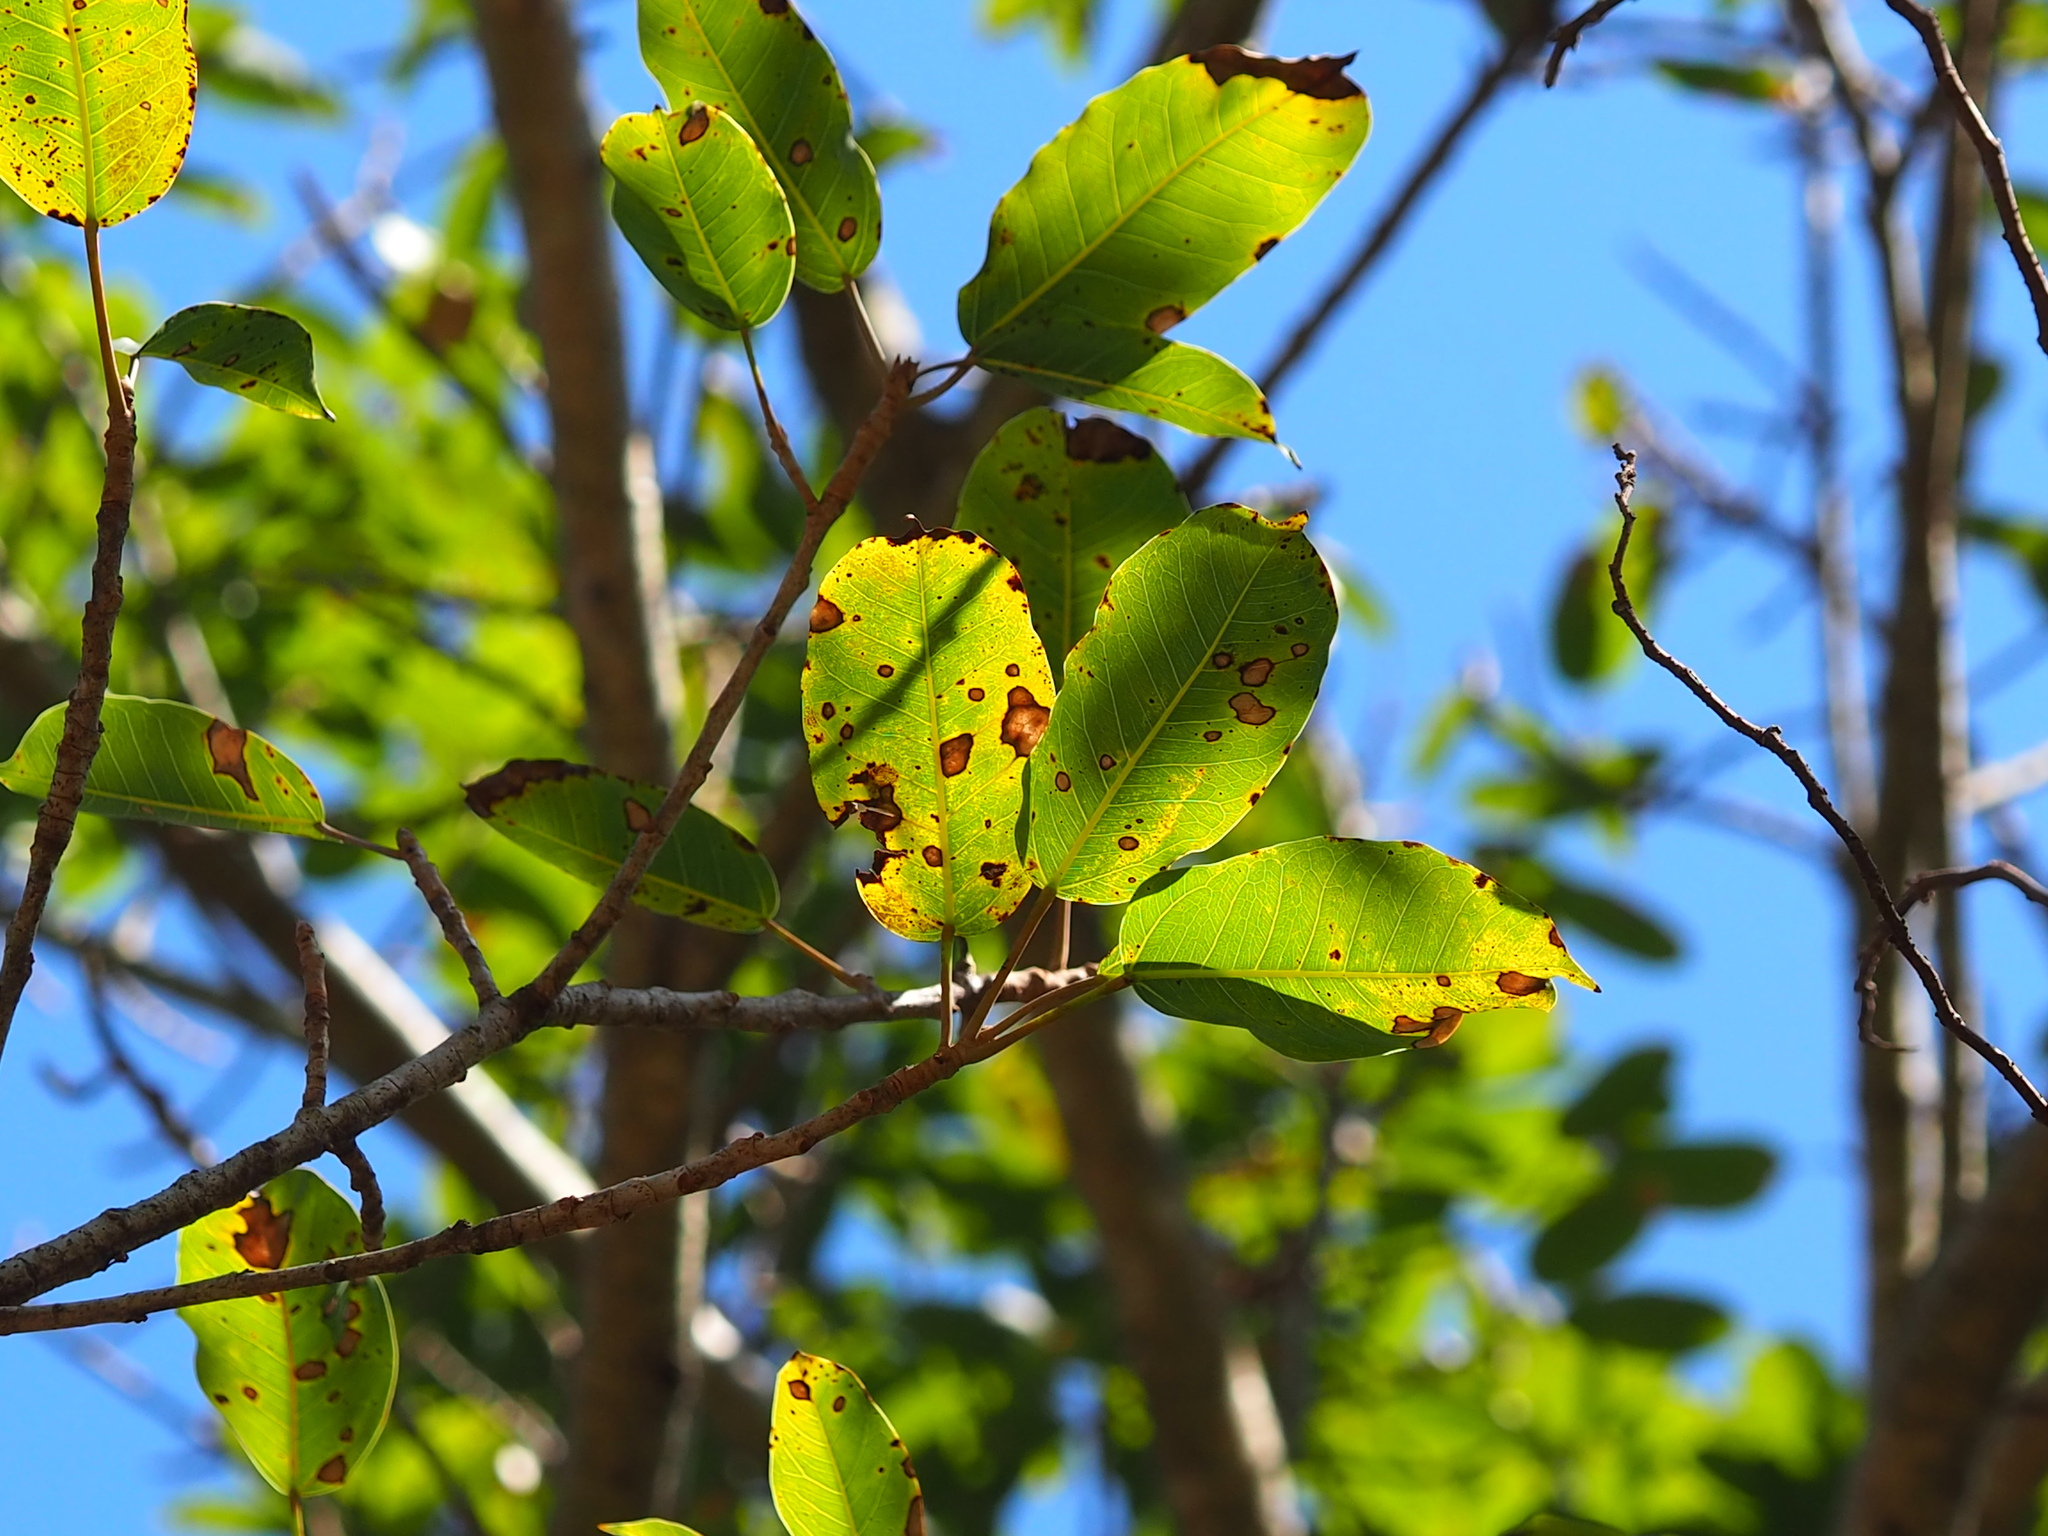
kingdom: Plantae
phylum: Tracheophyta
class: Magnoliopsida
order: Rosales
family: Moraceae
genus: Ficus
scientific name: Ficus caulocarpa
